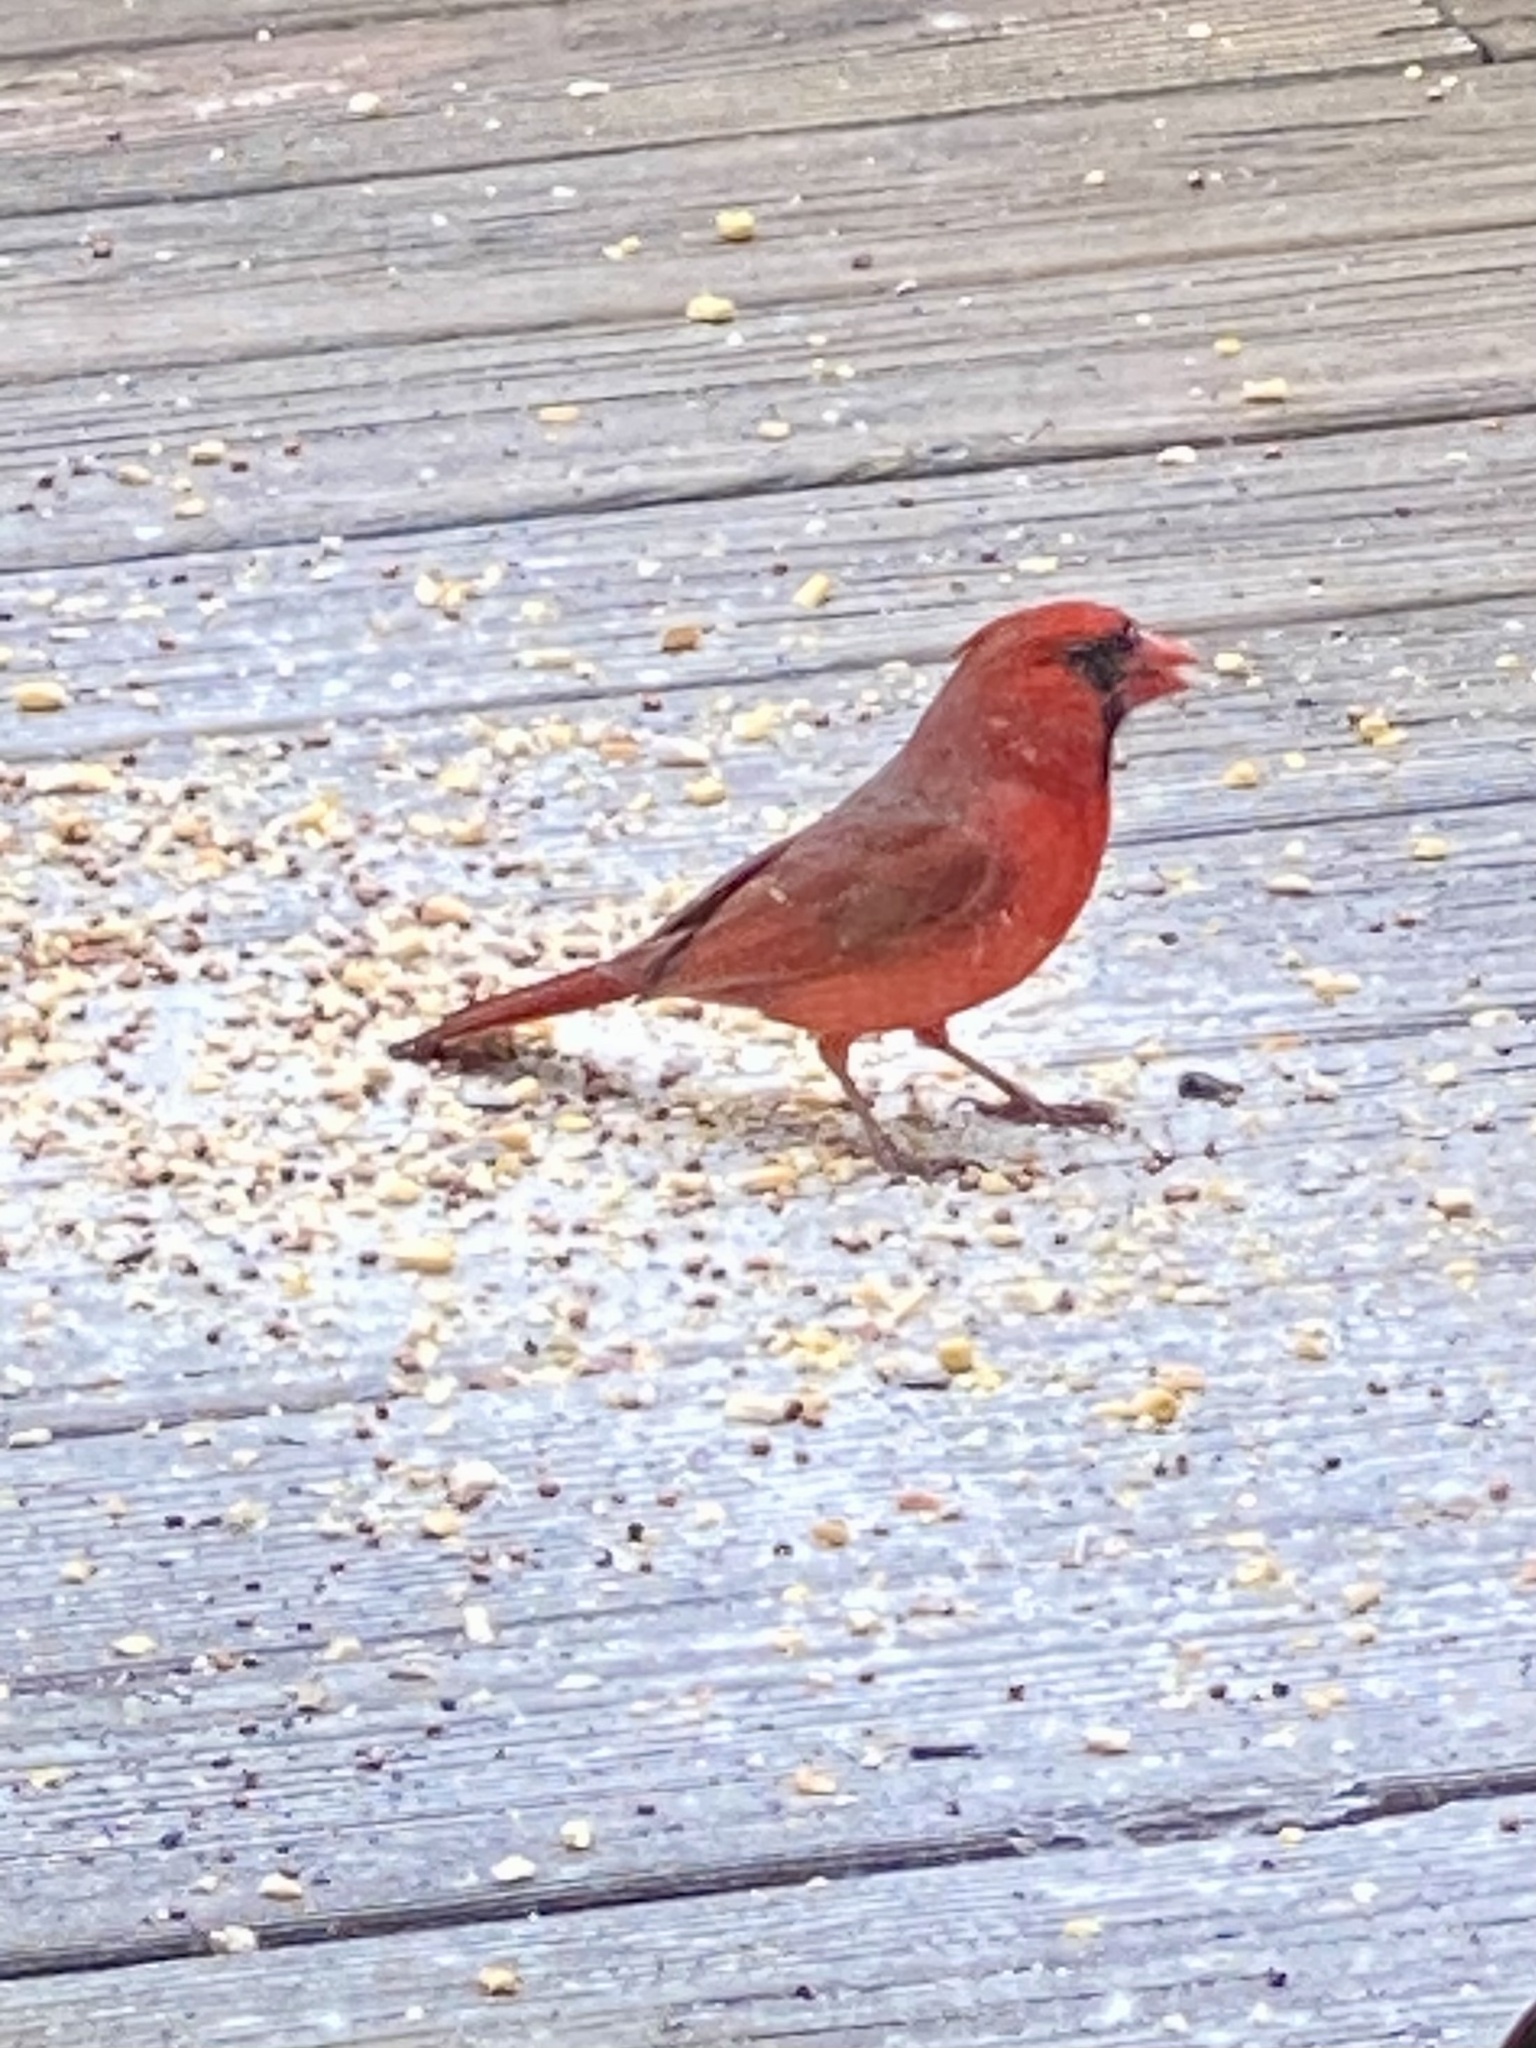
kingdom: Animalia
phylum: Chordata
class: Aves
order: Passeriformes
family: Cardinalidae
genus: Cardinalis
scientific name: Cardinalis cardinalis
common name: Northern cardinal
